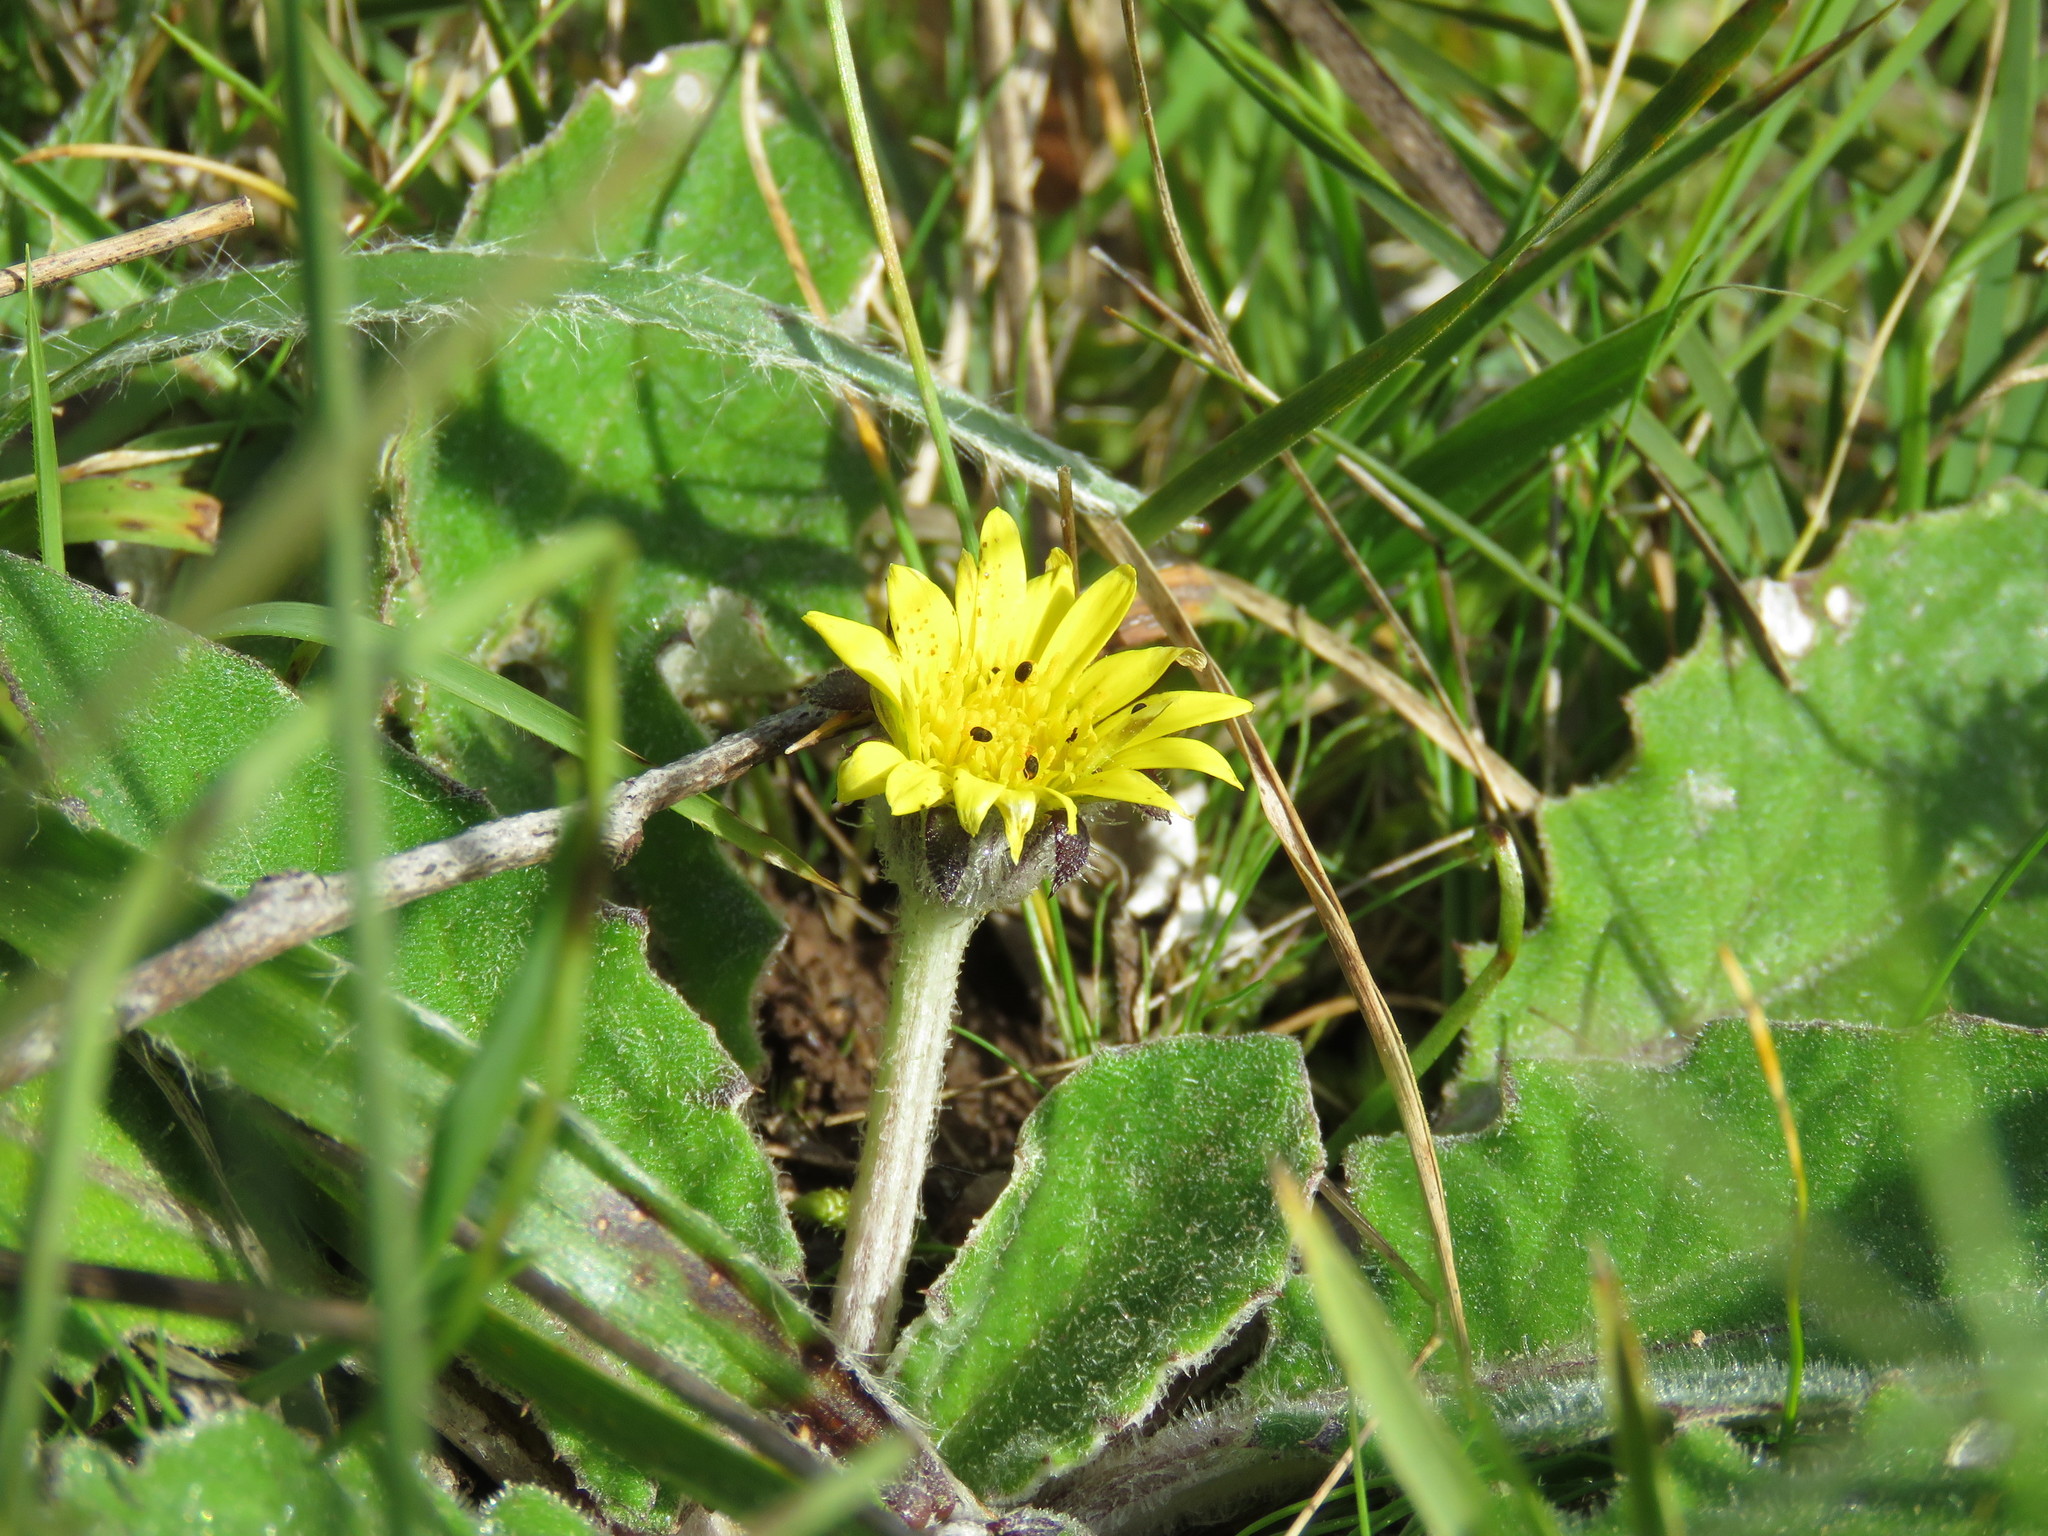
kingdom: Plantae
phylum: Tracheophyta
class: Magnoliopsida
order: Asterales
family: Asteraceae
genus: Cymbonotus
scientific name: Cymbonotus preissianus
